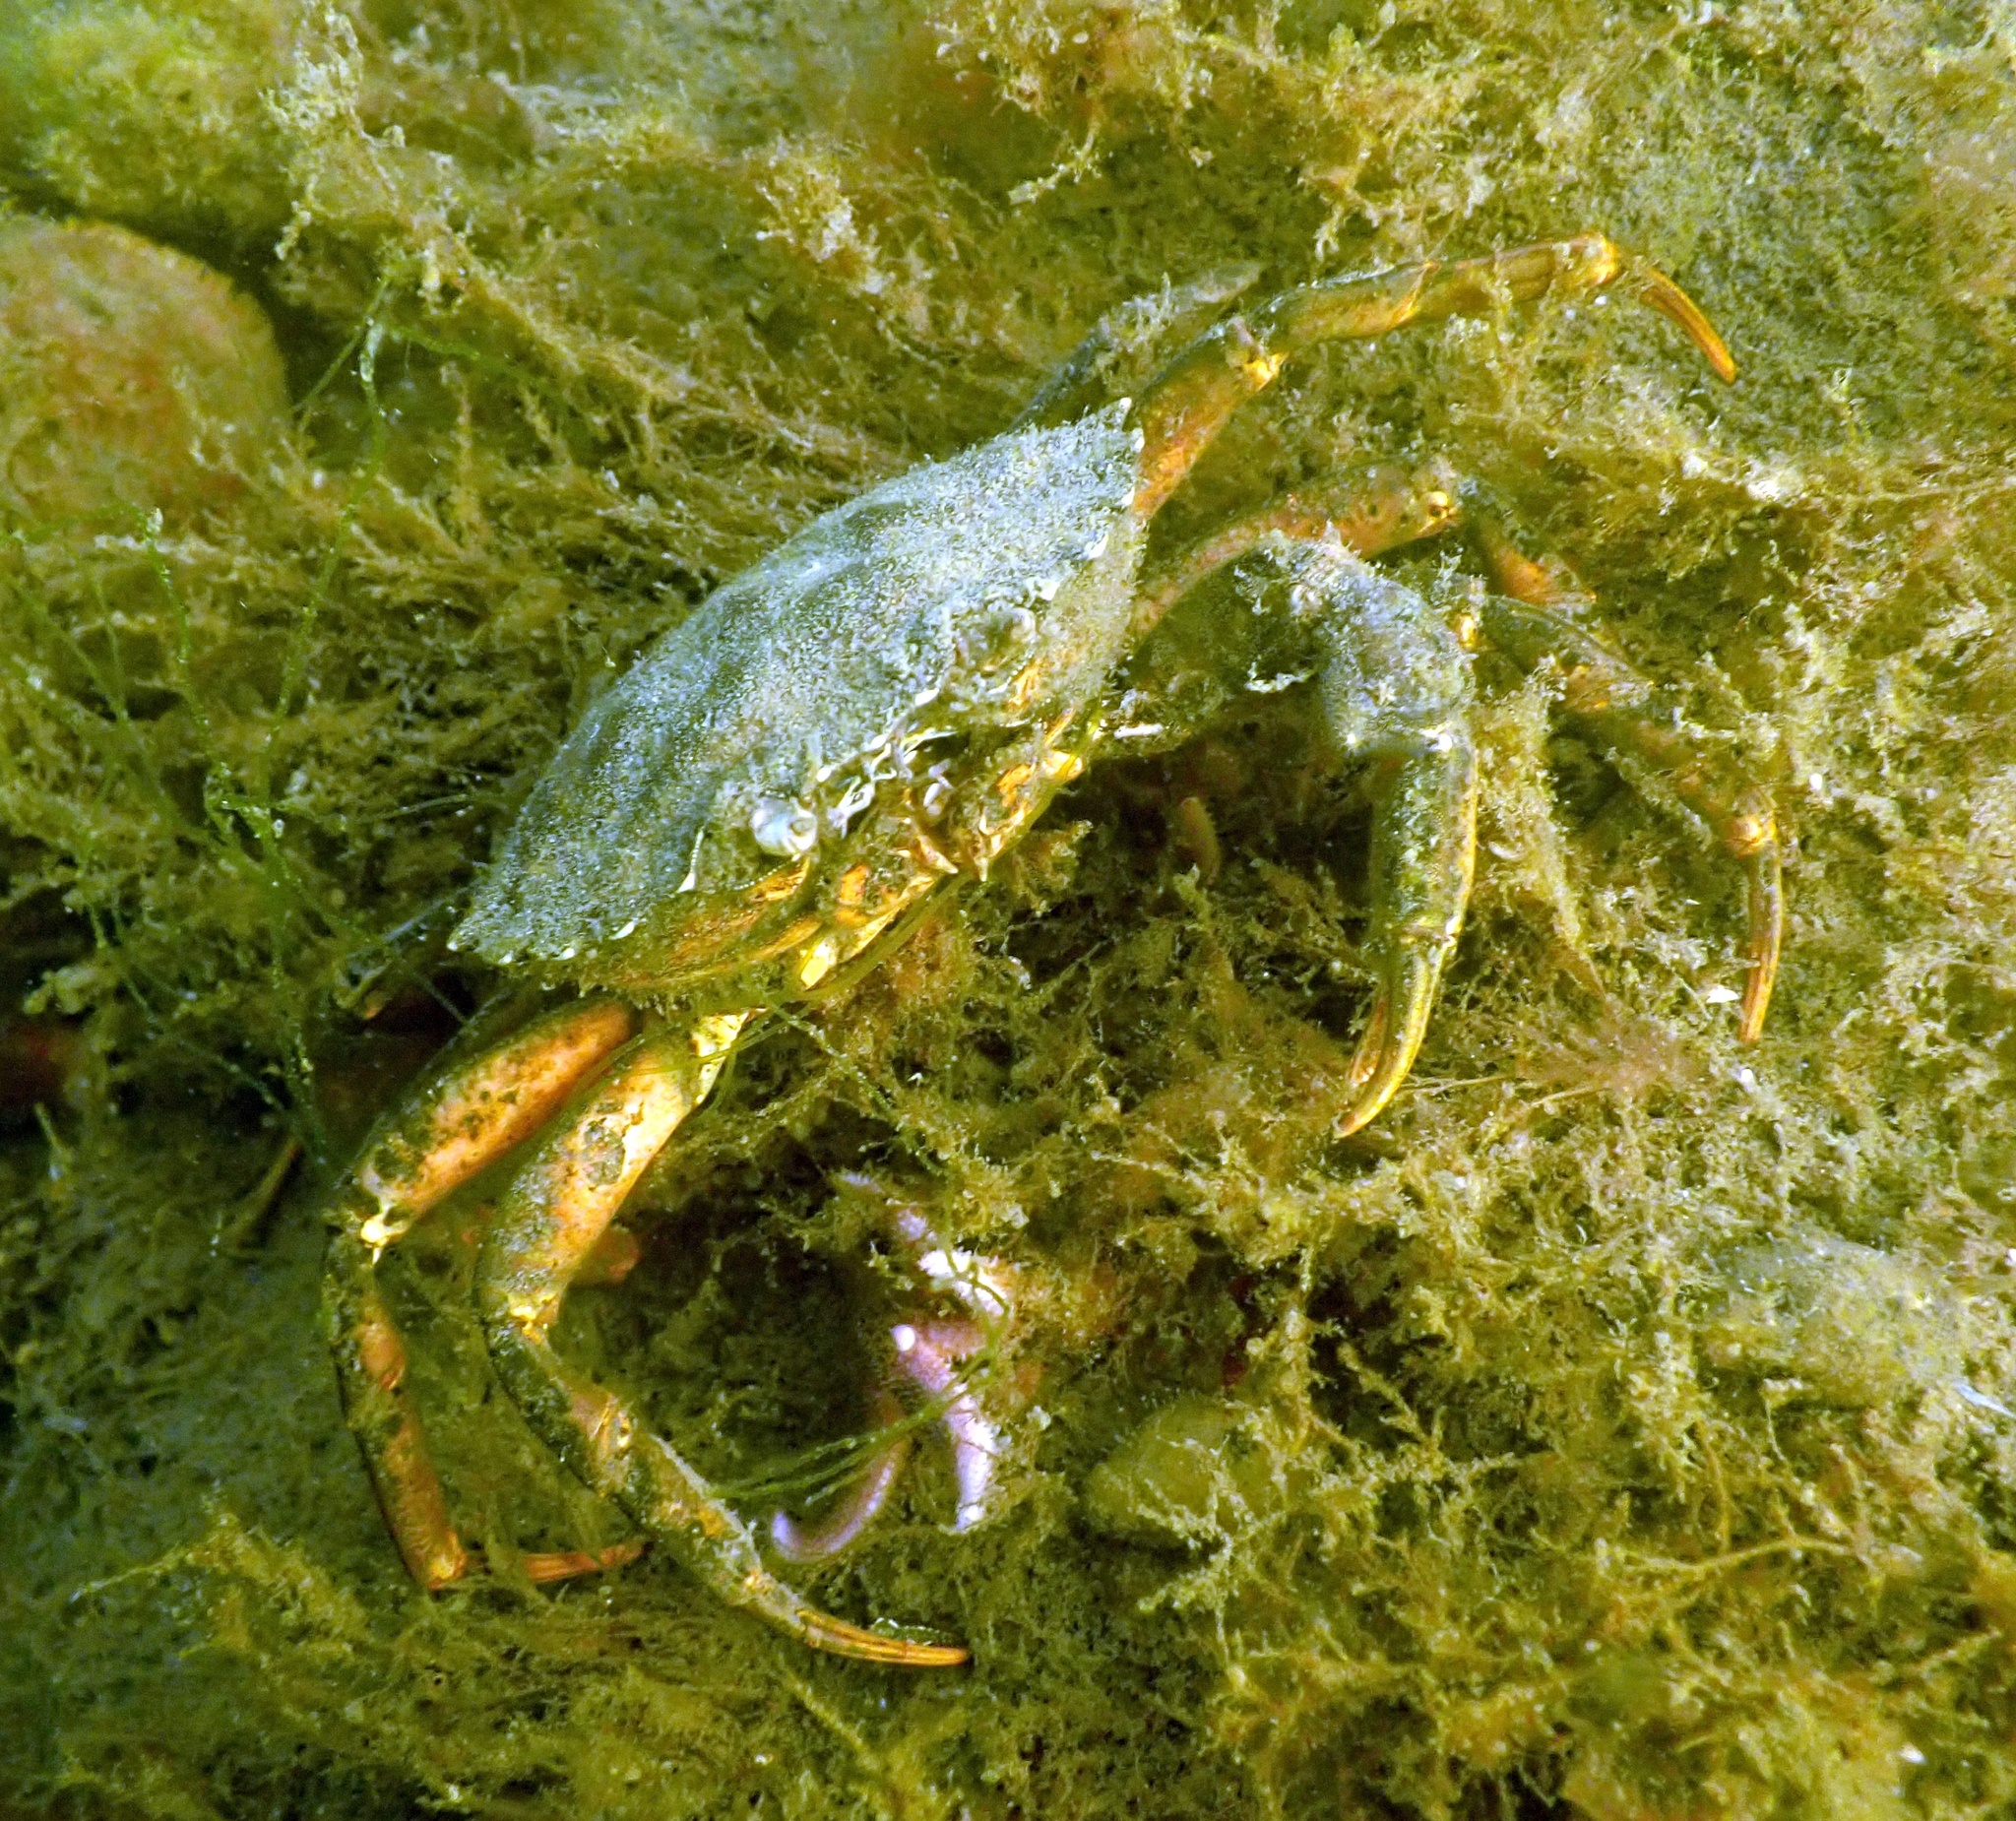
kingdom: Animalia
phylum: Arthropoda
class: Malacostraca
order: Decapoda
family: Carcinidae
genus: Carcinus
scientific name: Carcinus maenas
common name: European green crab
